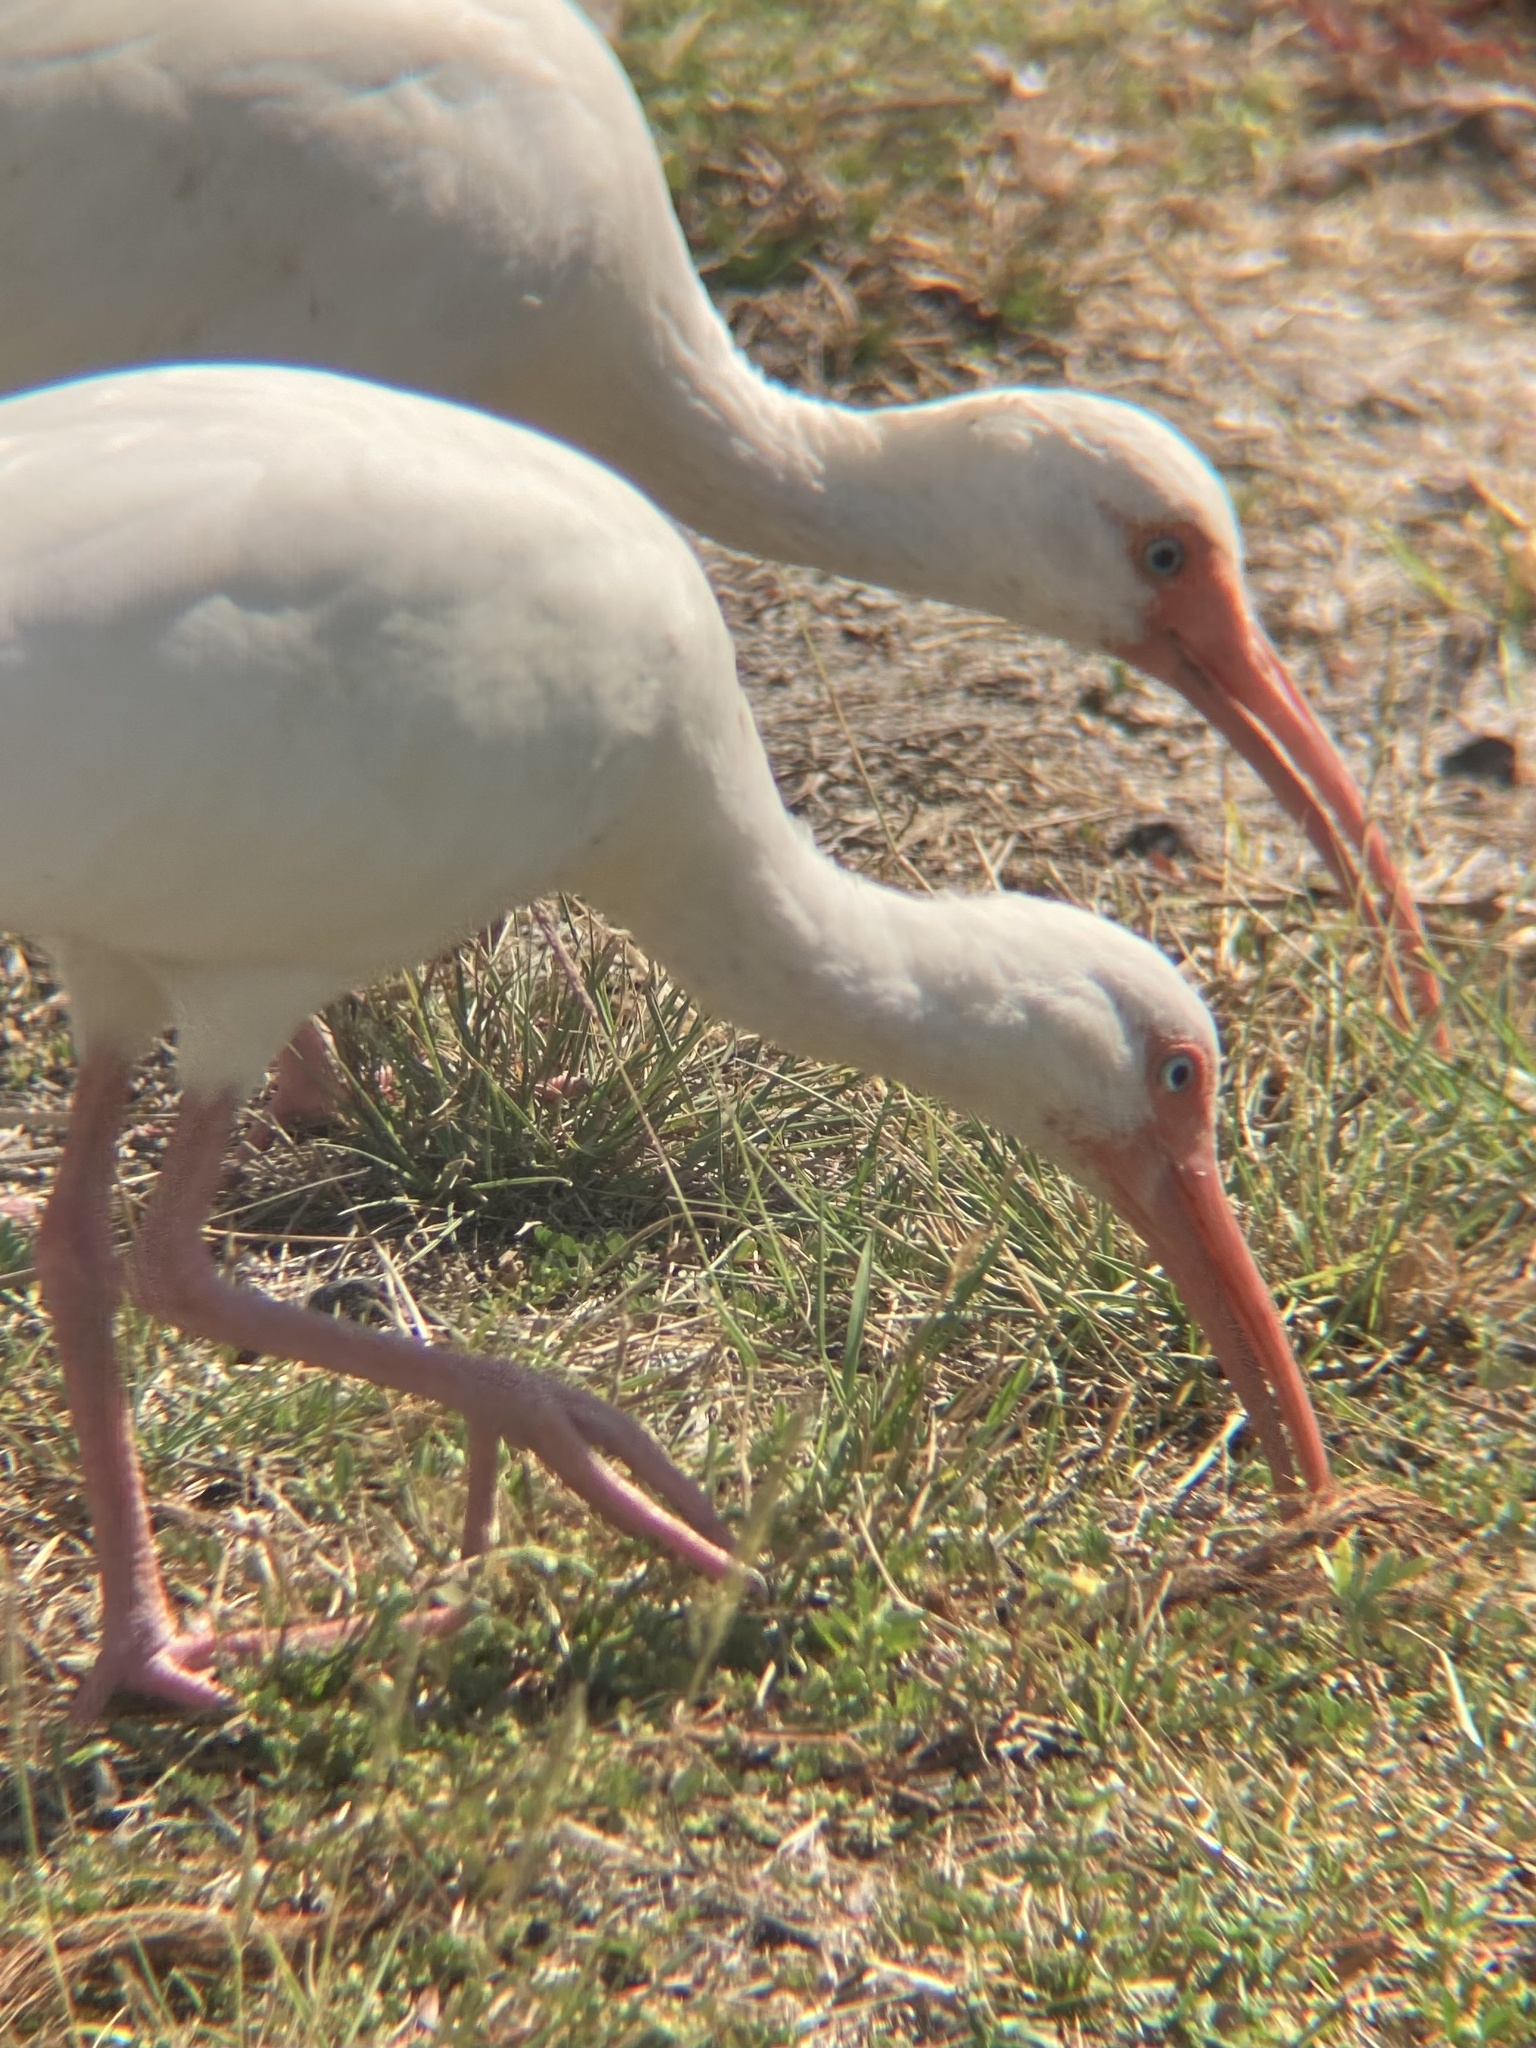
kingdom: Animalia
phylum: Chordata
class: Aves
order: Pelecaniformes
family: Threskiornithidae
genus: Eudocimus
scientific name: Eudocimus albus
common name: White ibis
